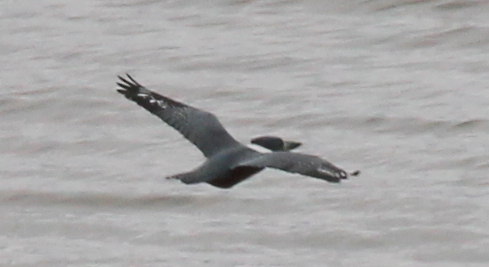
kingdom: Animalia
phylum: Chordata
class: Aves
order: Coraciiformes
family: Alcedinidae
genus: Megaceryle
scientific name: Megaceryle torquata
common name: Ringed kingfisher
